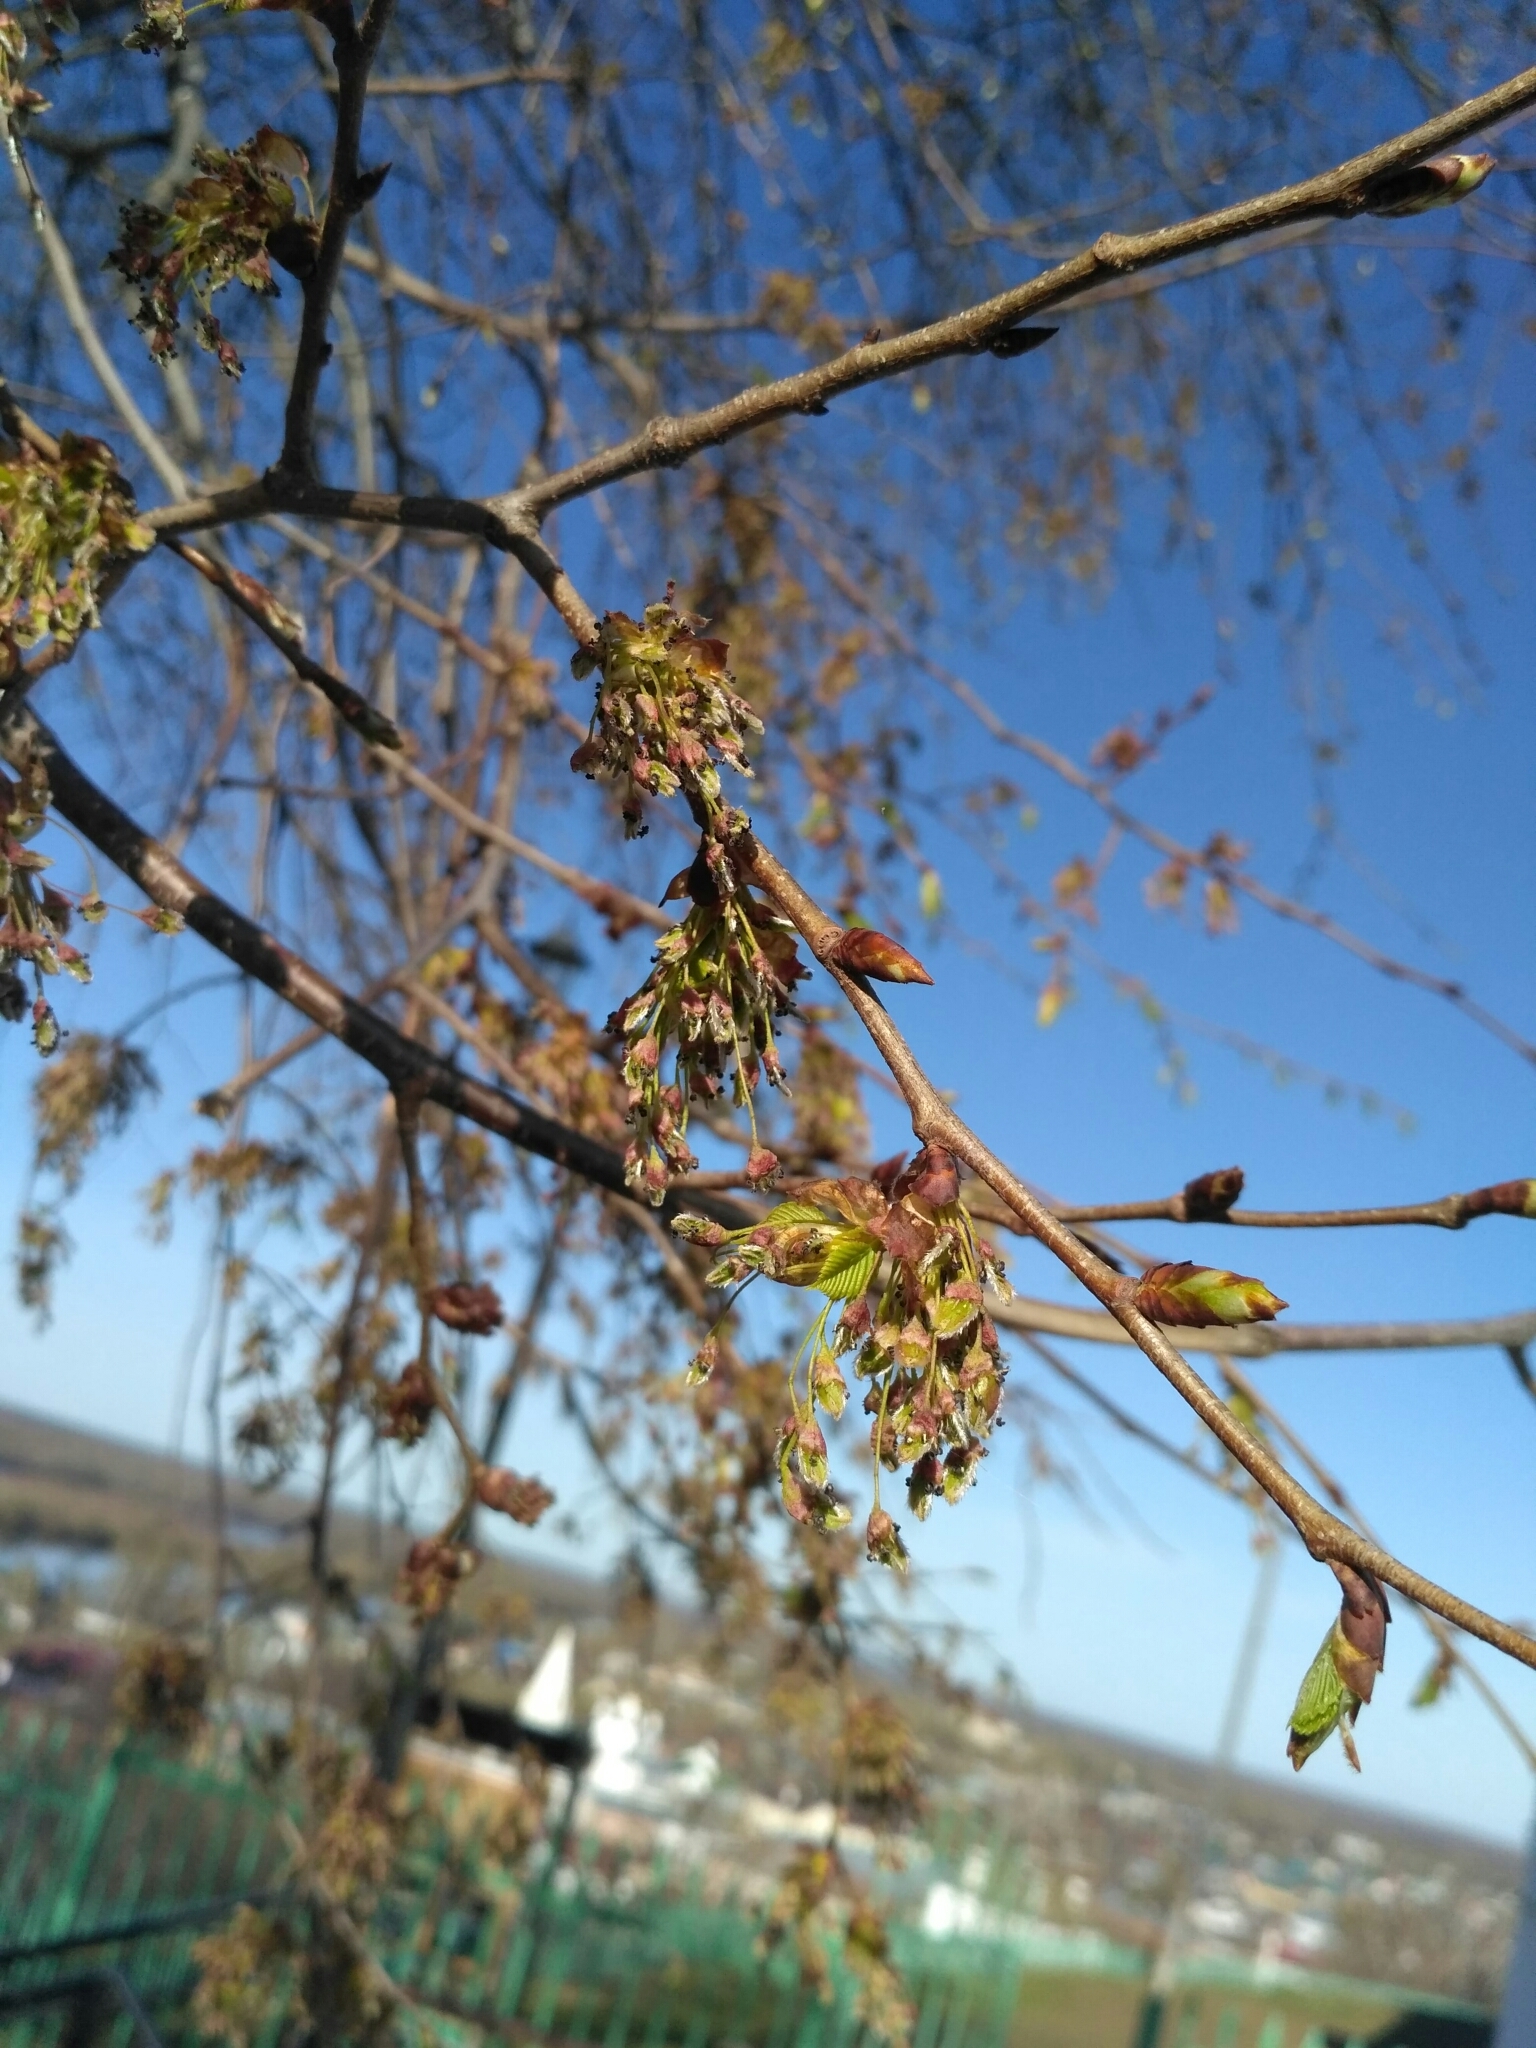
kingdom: Plantae
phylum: Tracheophyta
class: Magnoliopsida
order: Rosales
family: Ulmaceae
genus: Ulmus
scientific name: Ulmus laevis
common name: European white-elm
